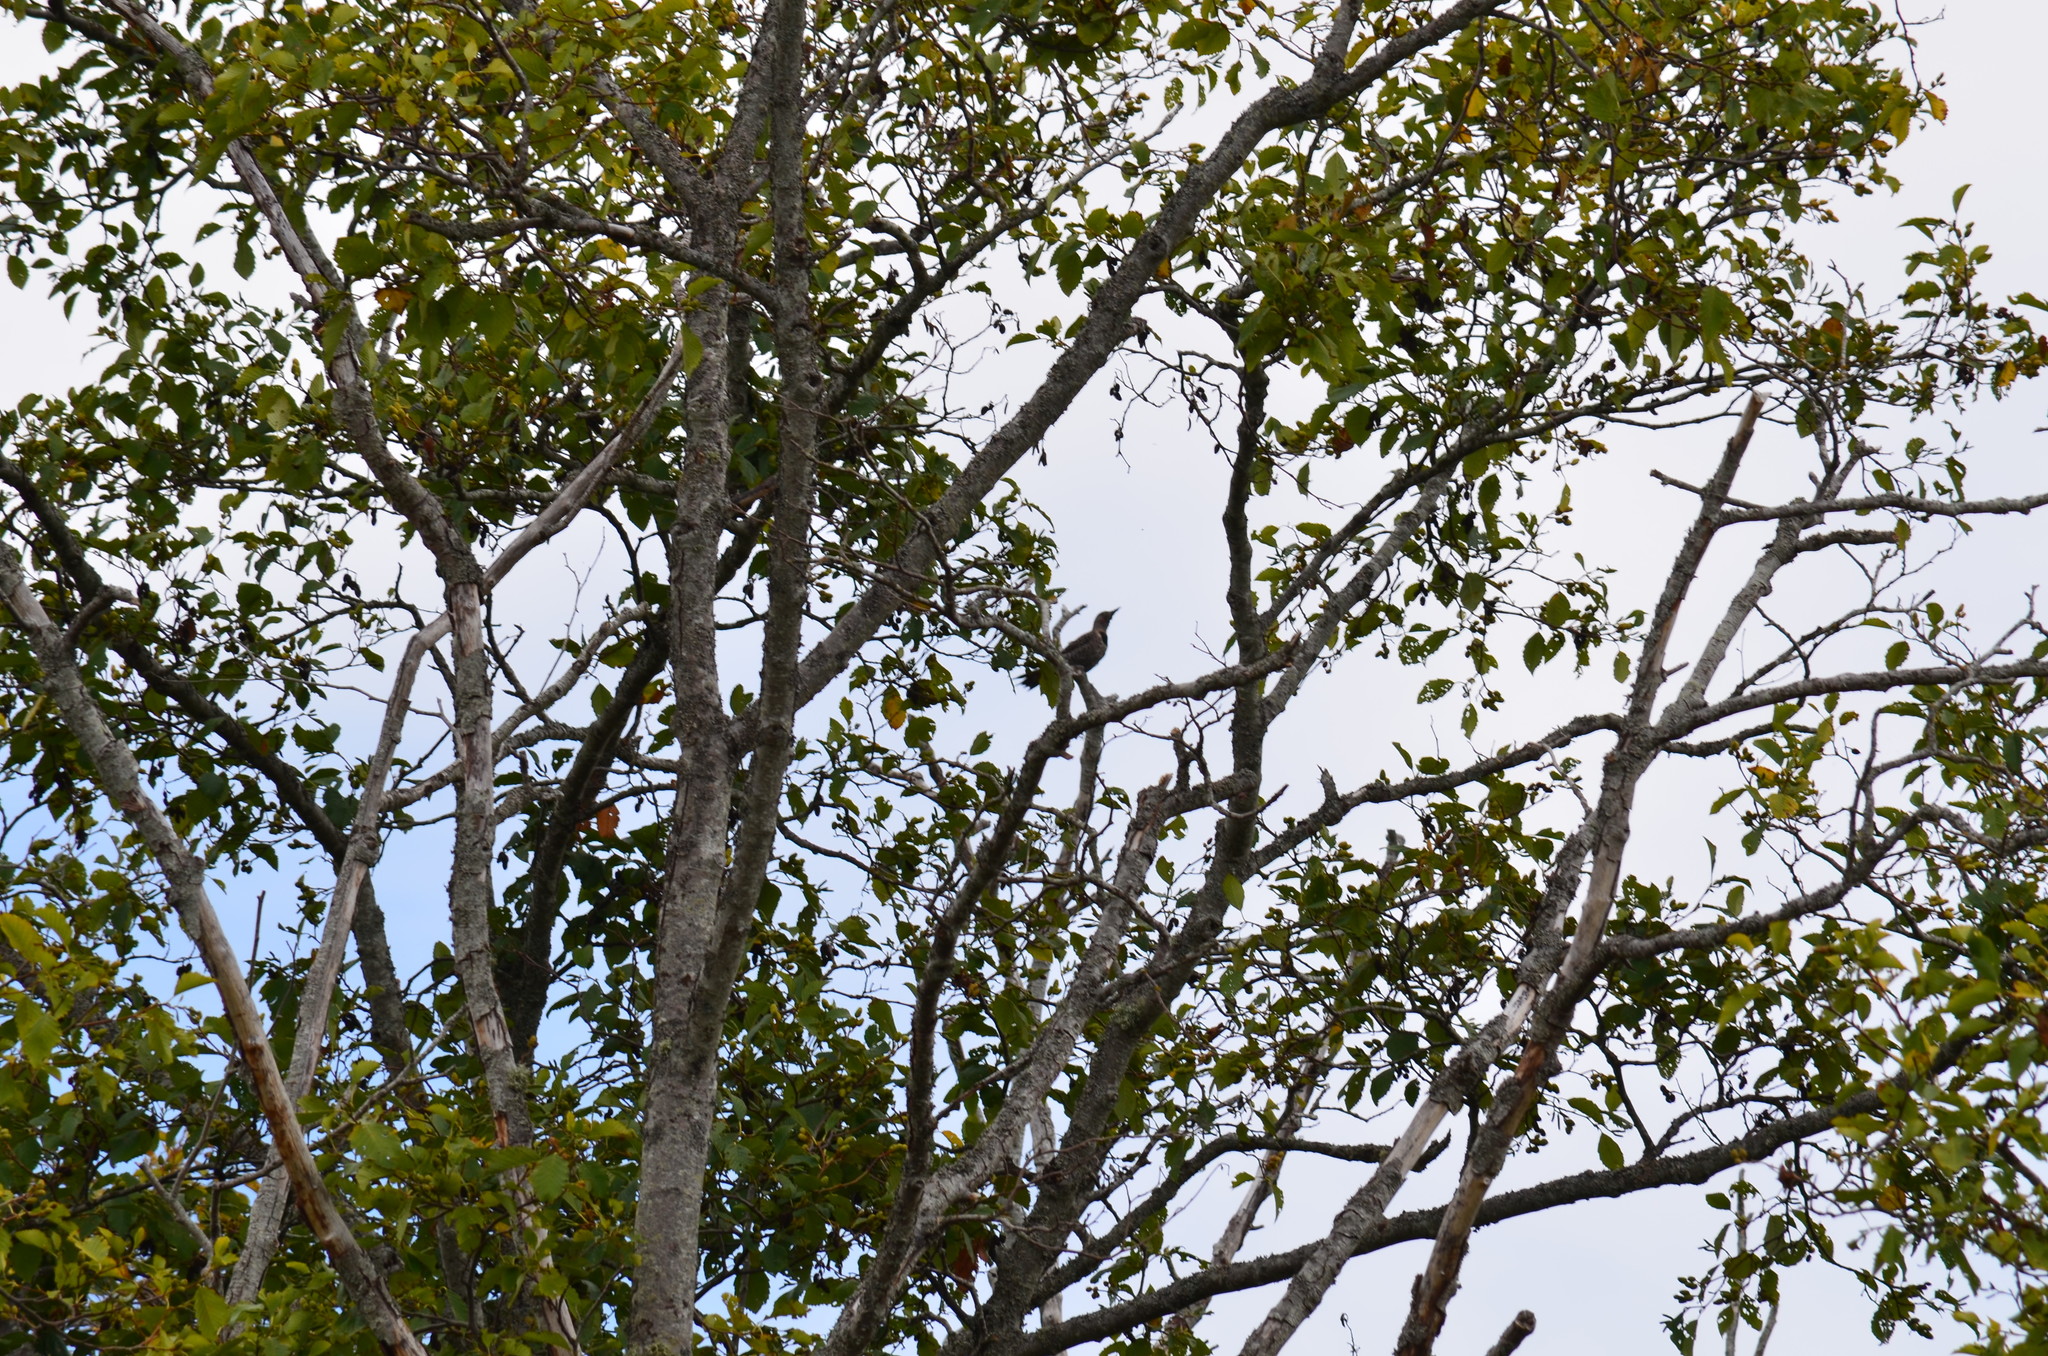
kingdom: Animalia
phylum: Chordata
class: Aves
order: Piciformes
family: Picidae
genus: Colaptes
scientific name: Colaptes auratus
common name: Northern flicker
